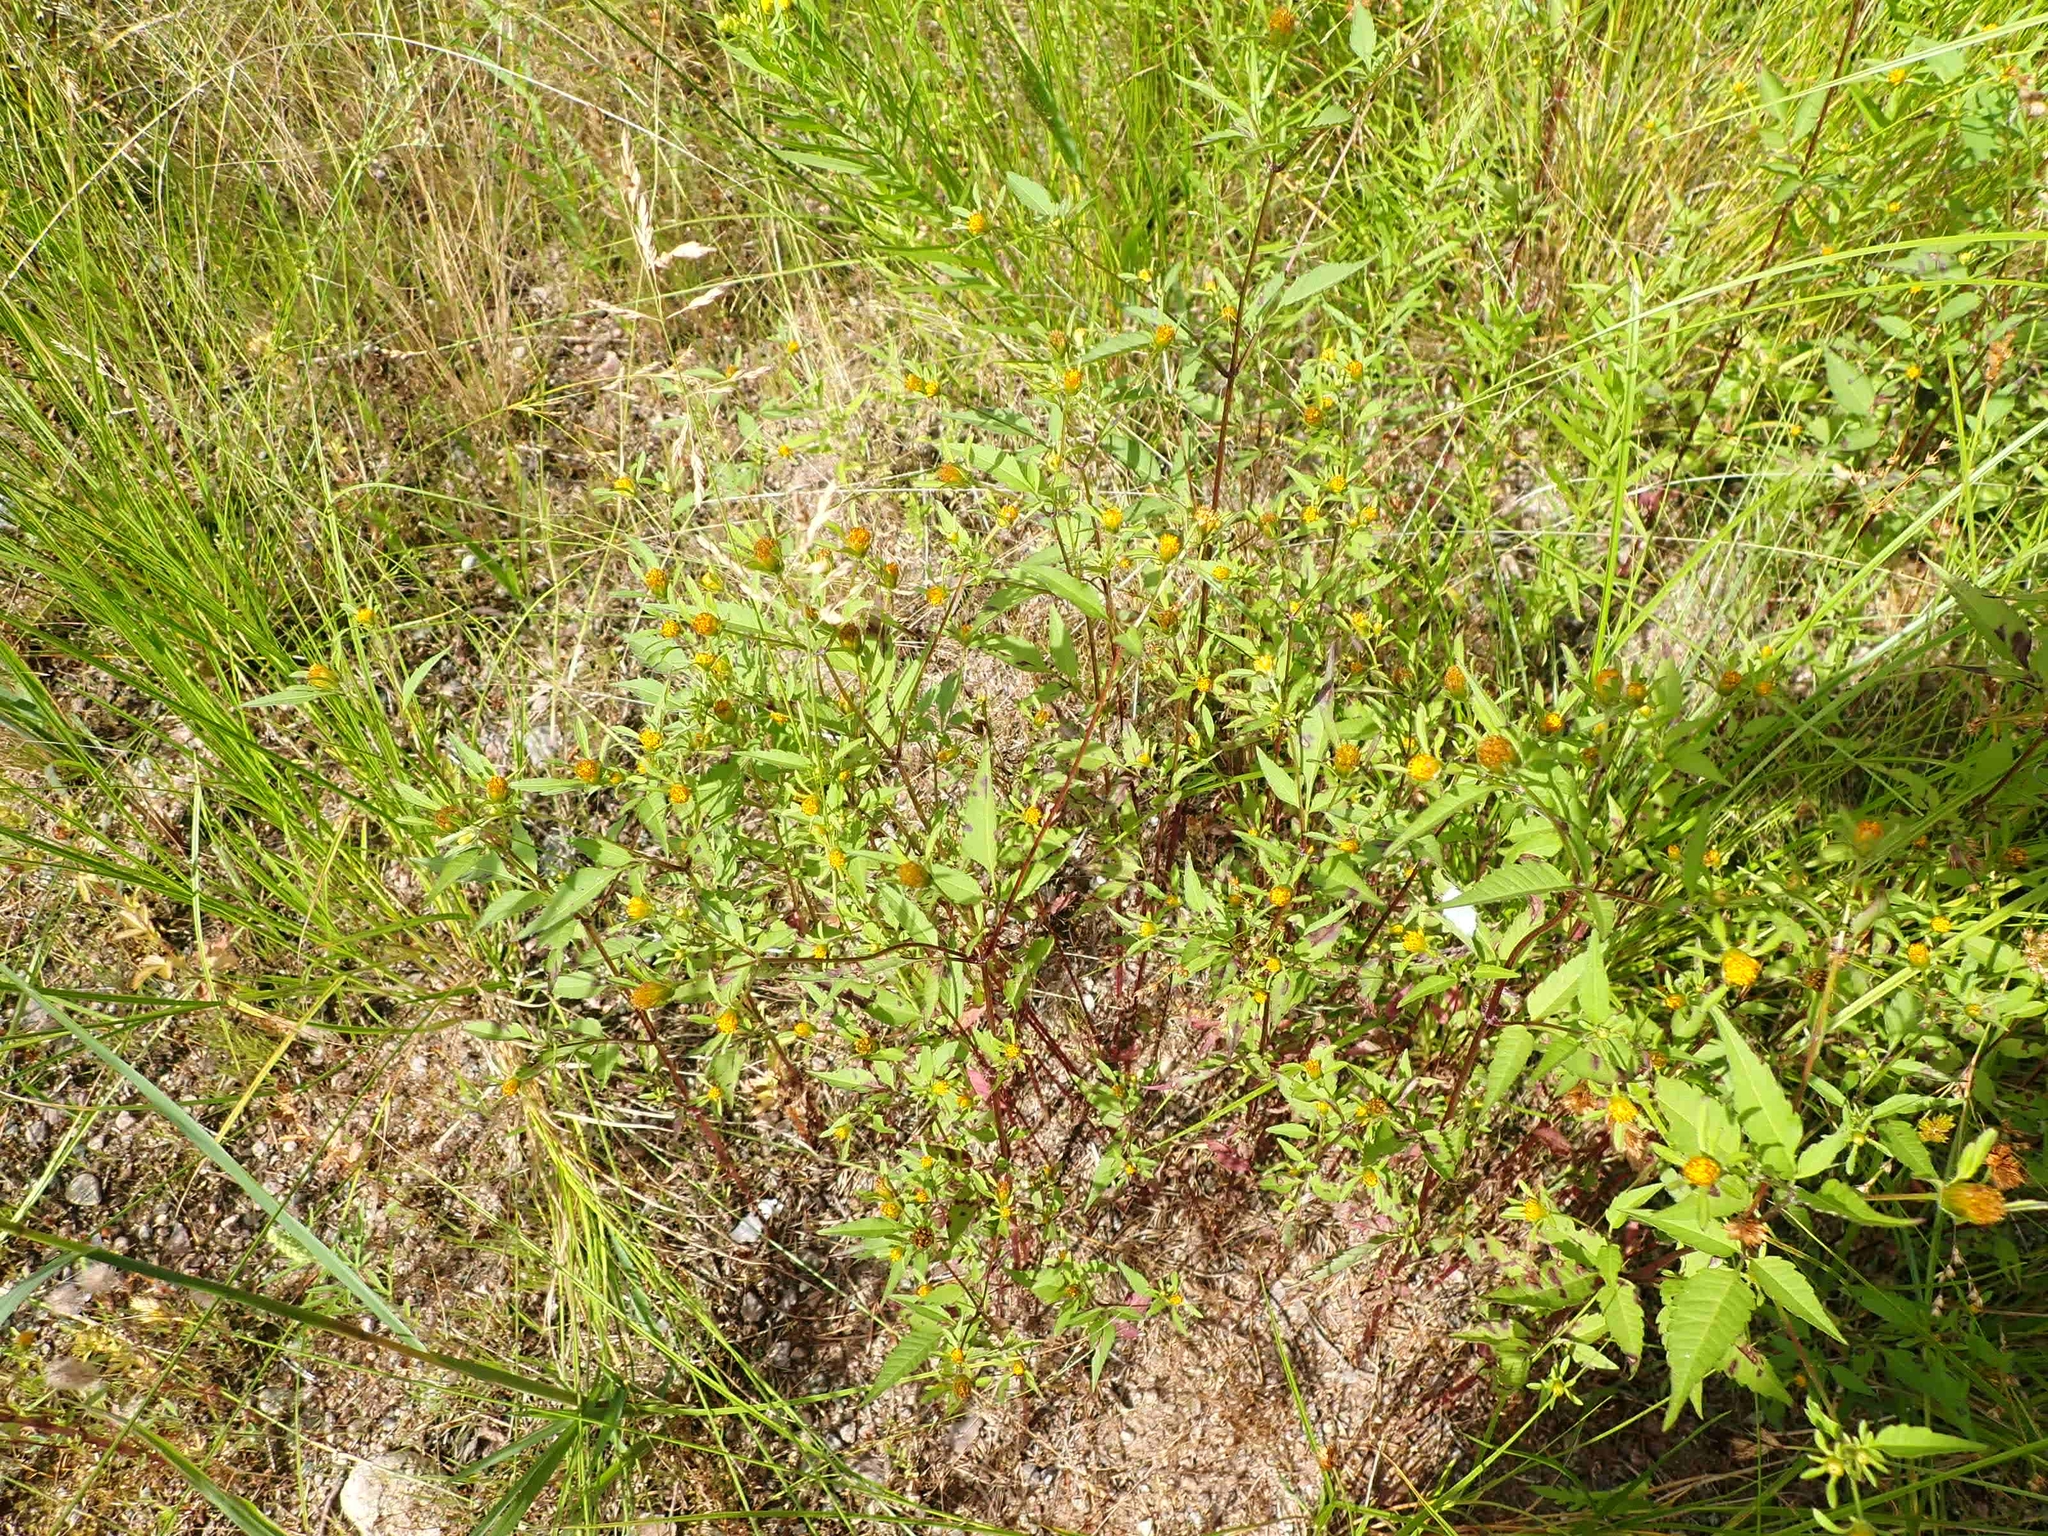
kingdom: Plantae
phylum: Tracheophyta
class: Magnoliopsida
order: Asterales
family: Asteraceae
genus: Bidens
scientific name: Bidens frondosa
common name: Beggarticks
